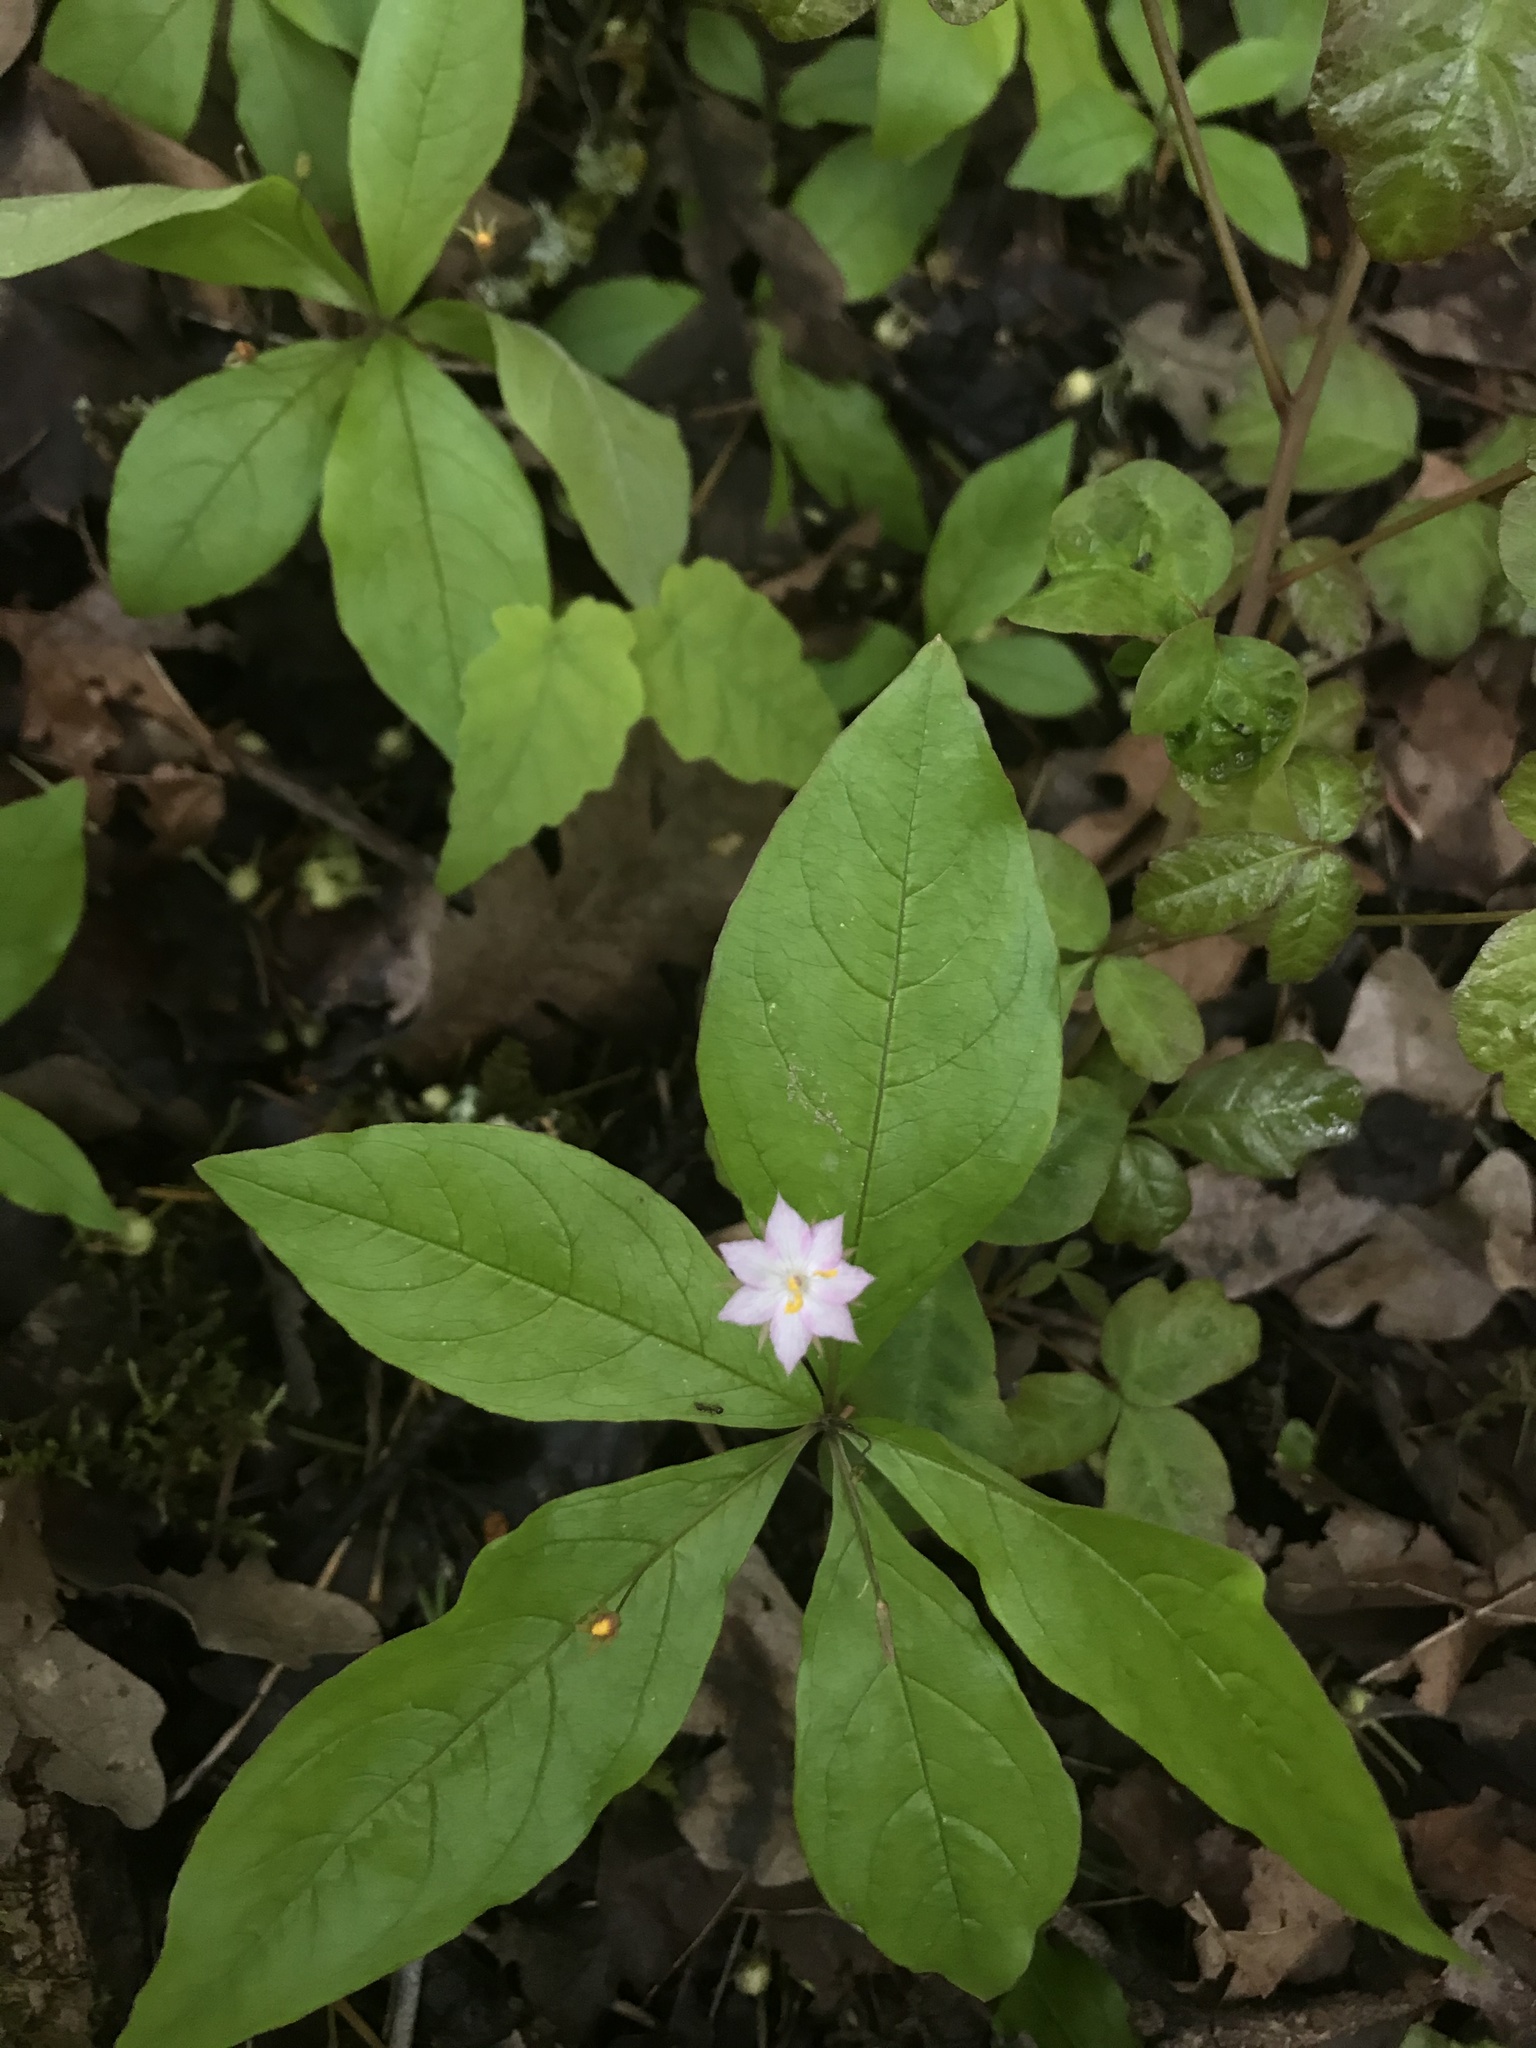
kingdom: Plantae
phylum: Tracheophyta
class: Magnoliopsida
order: Ericales
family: Primulaceae
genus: Lysimachia
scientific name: Lysimachia latifolia
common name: Pacific starflower
